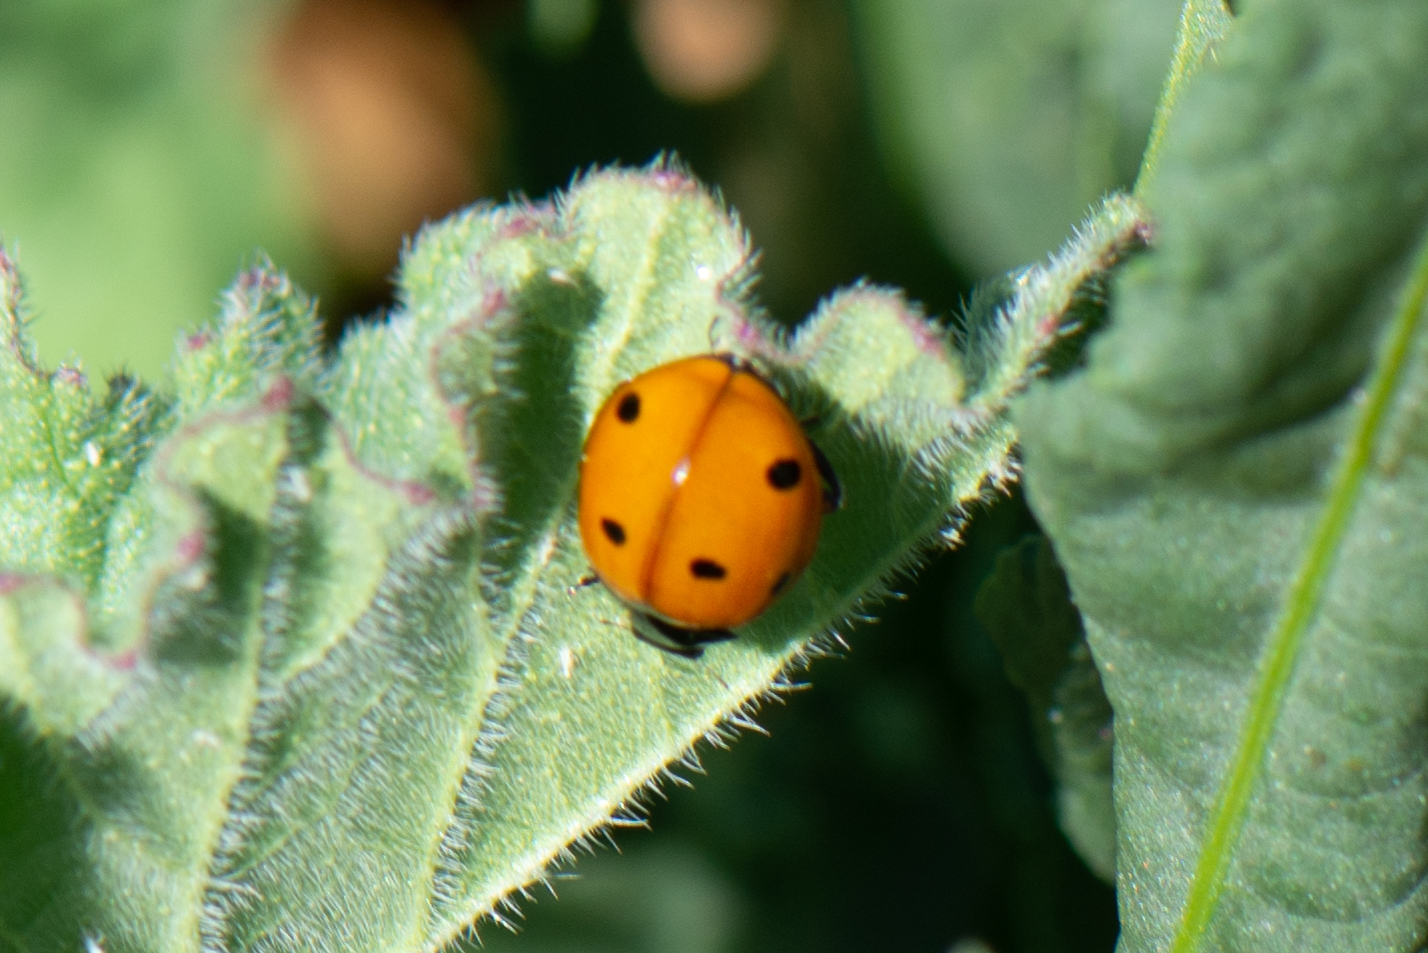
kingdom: Animalia
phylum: Arthropoda
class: Insecta
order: Coleoptera
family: Coccinellidae
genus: Coccinella
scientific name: Coccinella septempunctata
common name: Sevenspotted lady beetle
